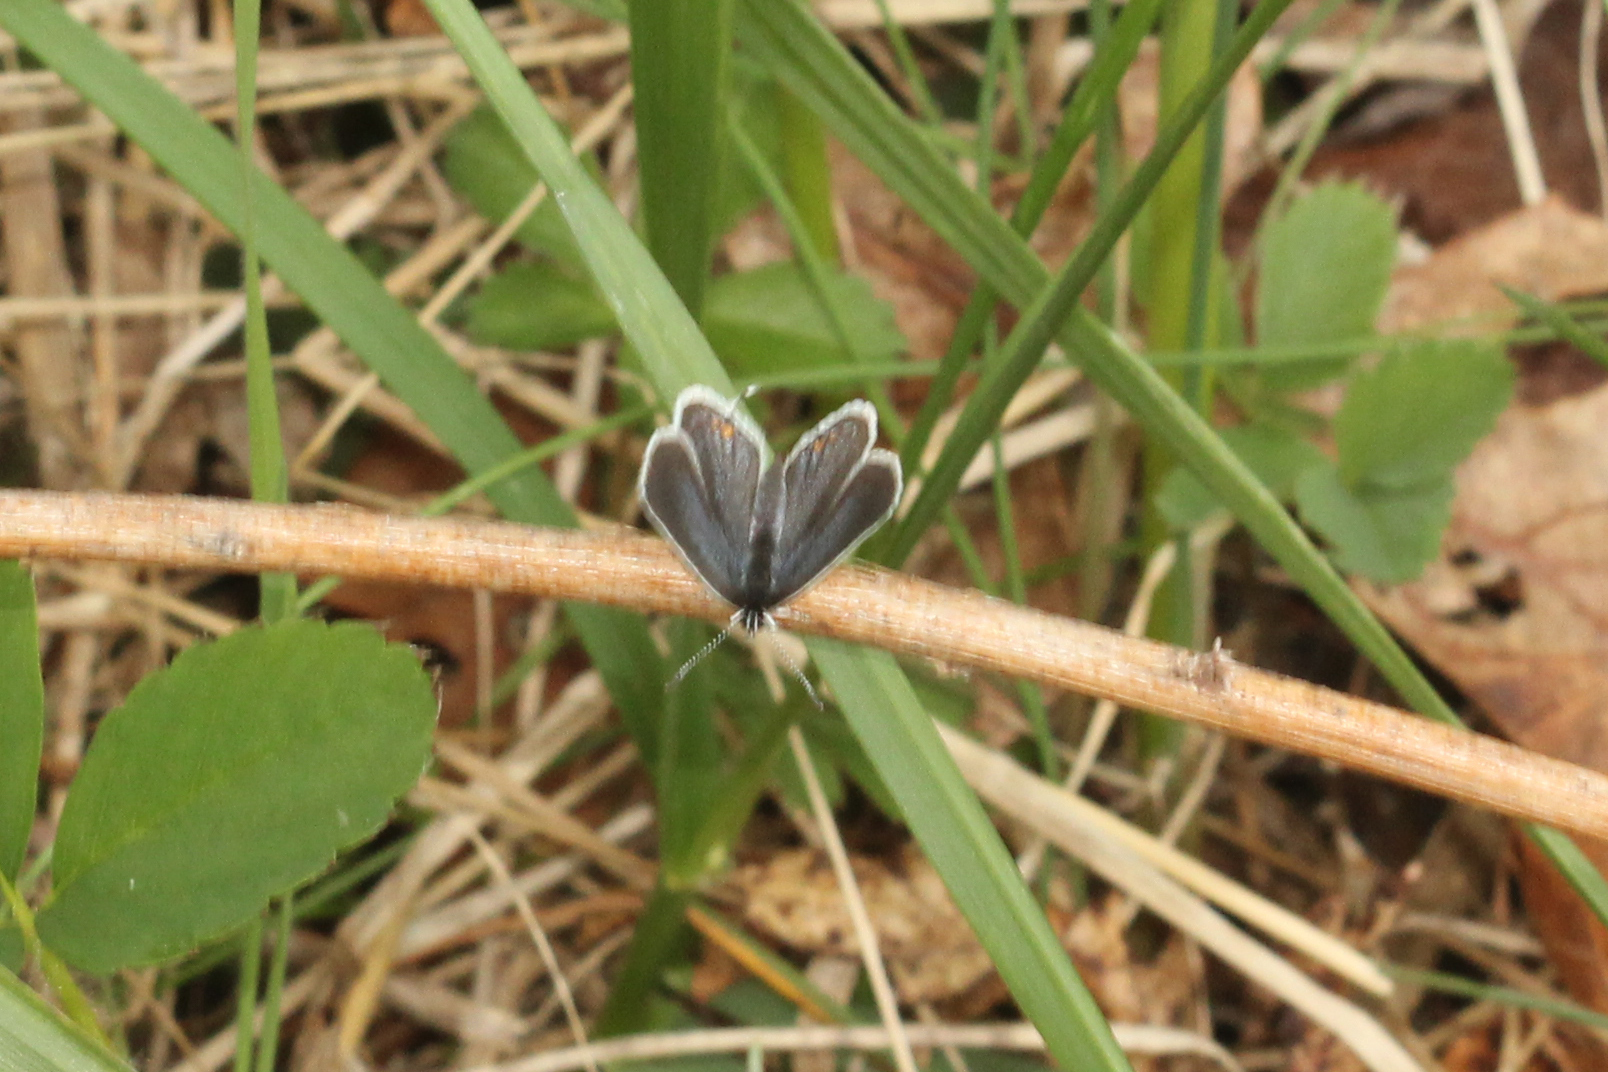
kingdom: Animalia
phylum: Arthropoda
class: Insecta
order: Lepidoptera
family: Lycaenidae
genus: Elkalyce
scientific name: Elkalyce comyntas
